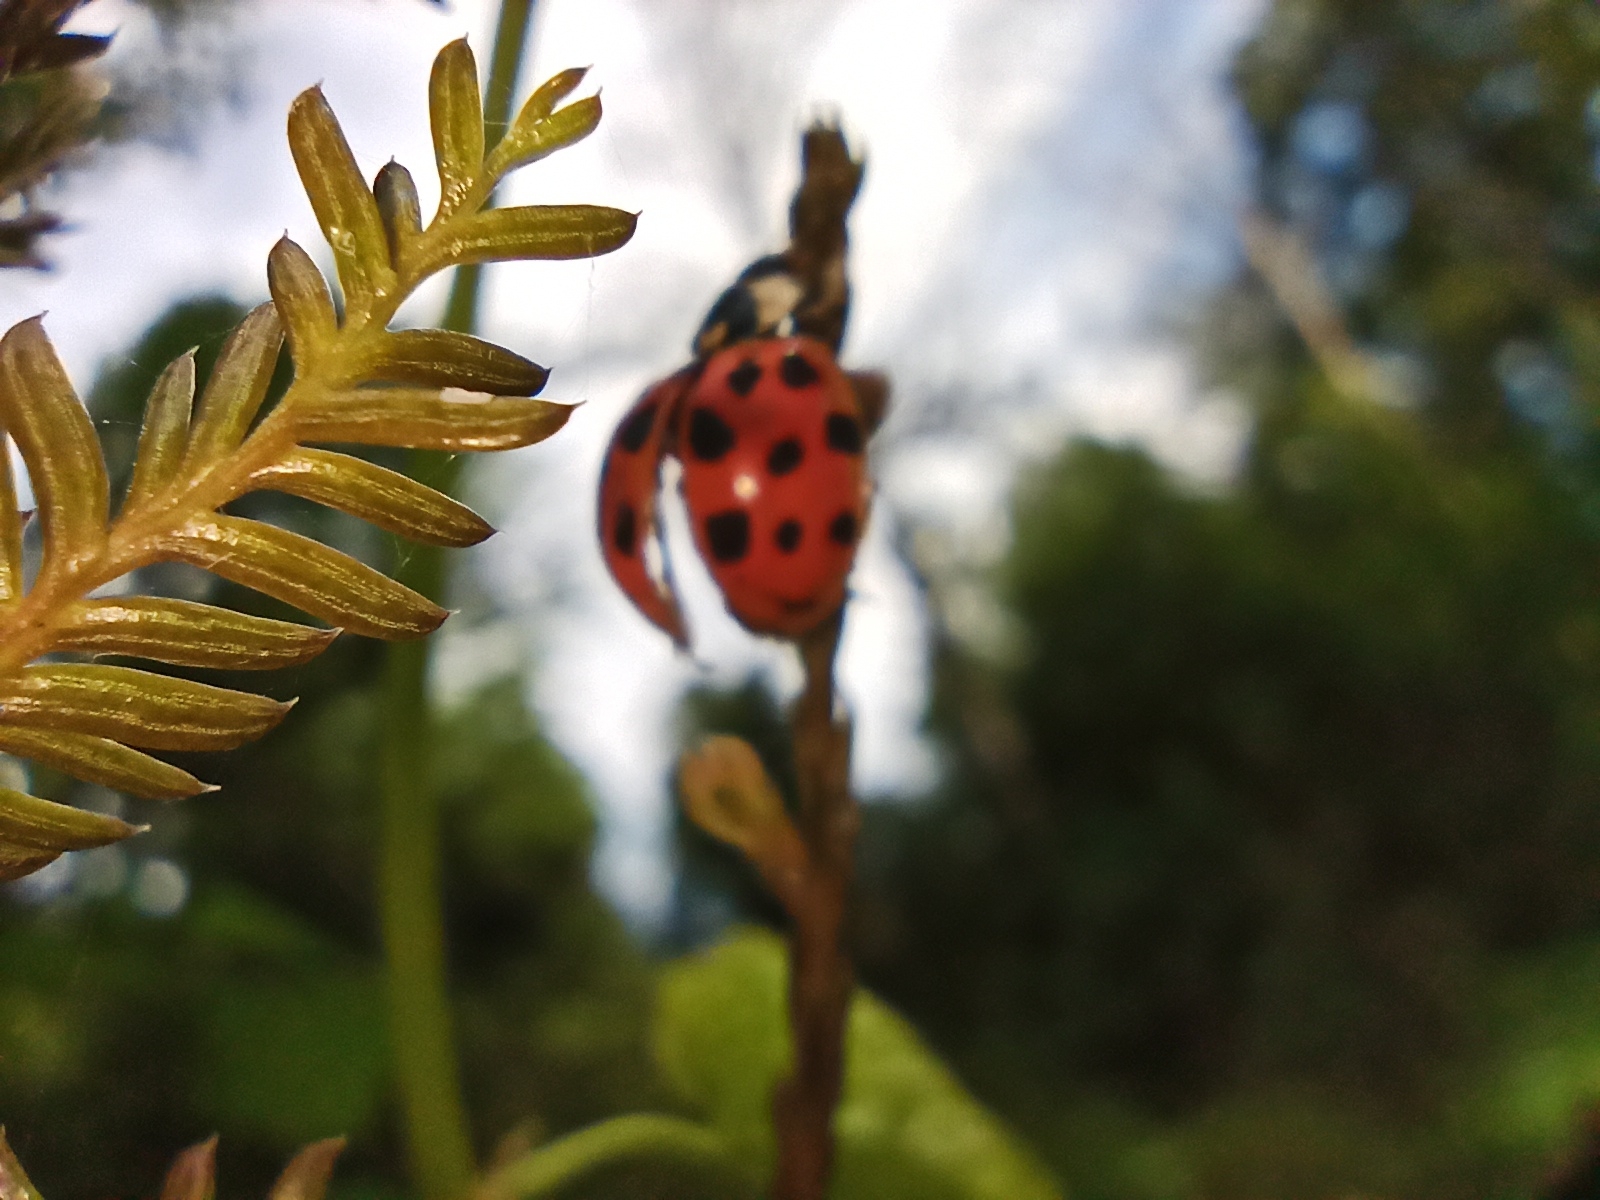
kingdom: Animalia
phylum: Arthropoda
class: Insecta
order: Coleoptera
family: Coccinellidae
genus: Harmonia
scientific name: Harmonia axyridis
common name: Harlequin ladybird
